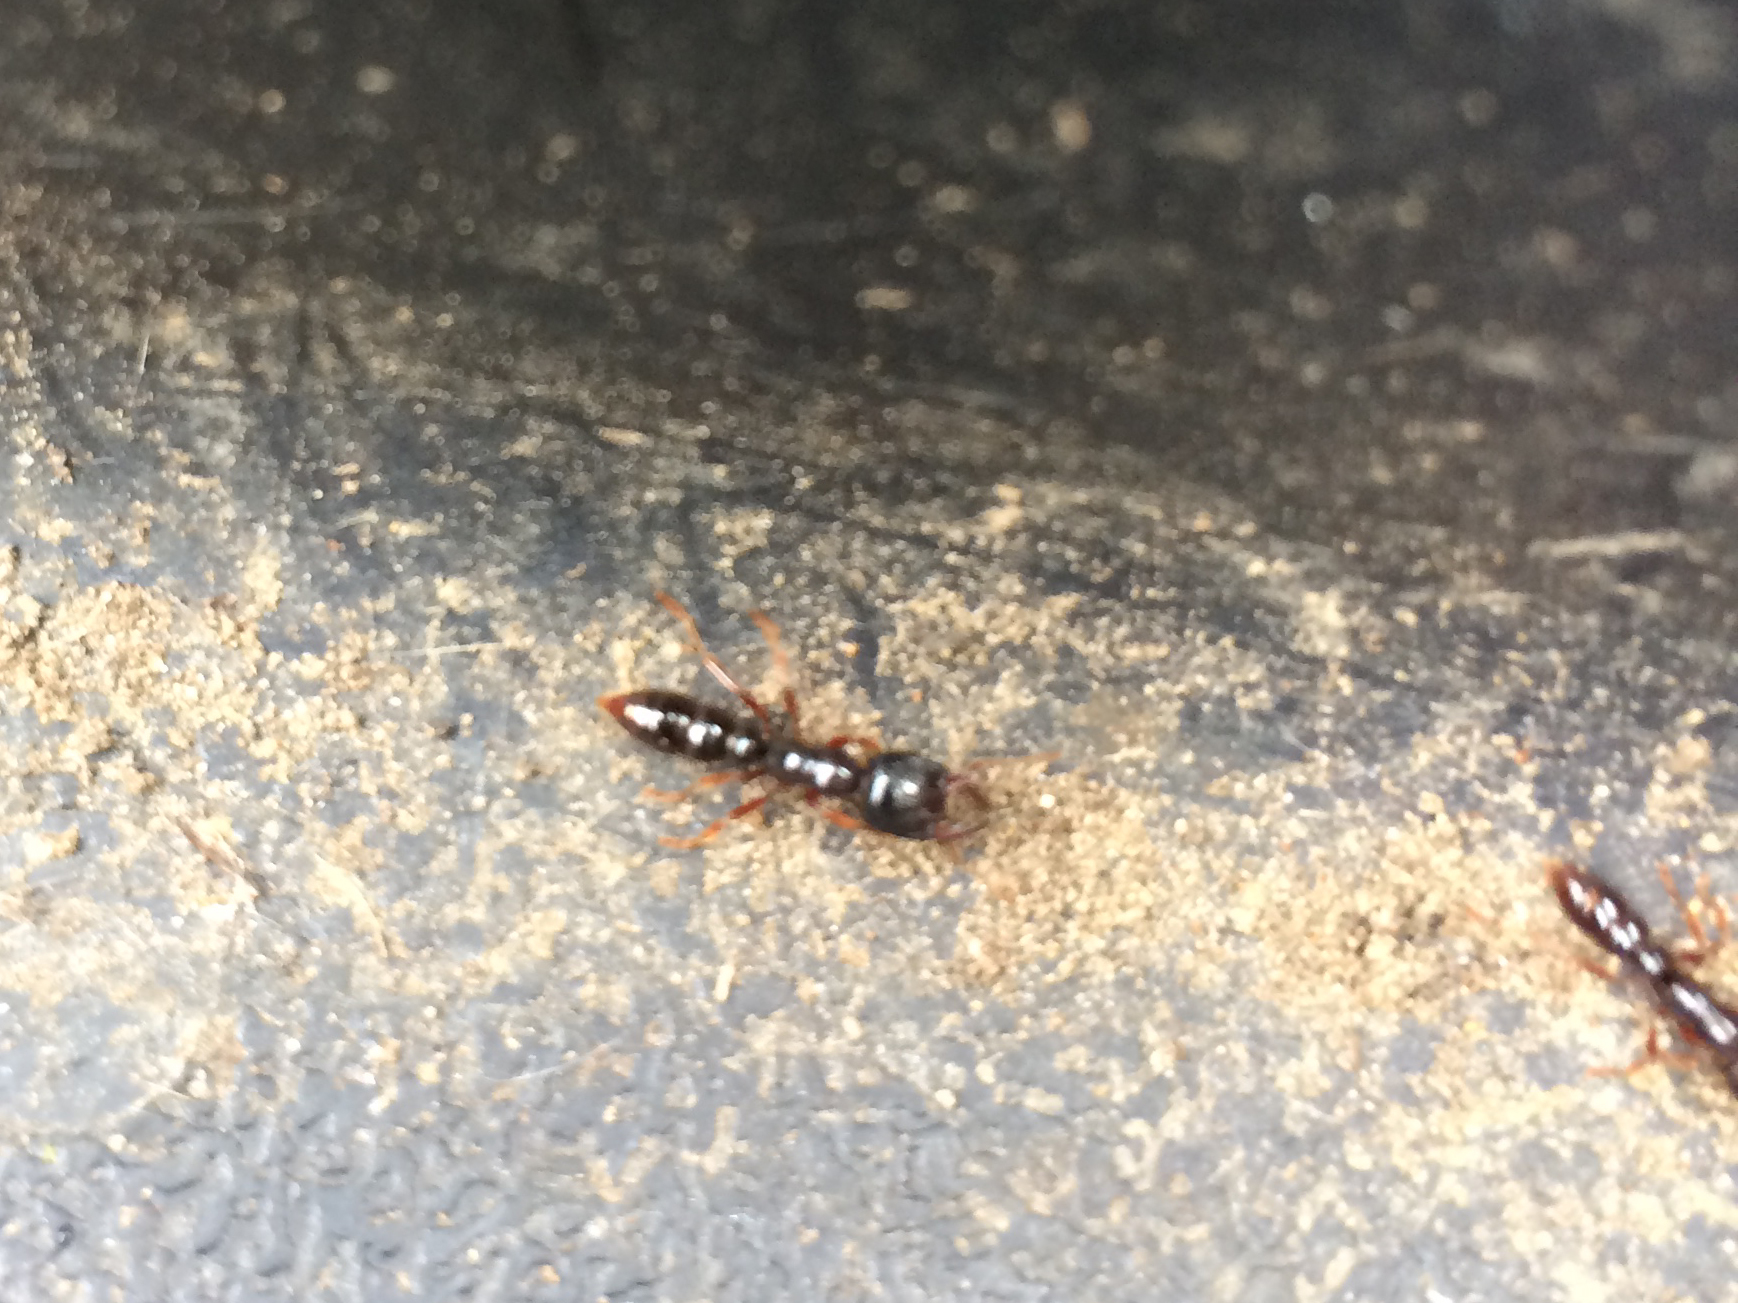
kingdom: Animalia
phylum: Arthropoda
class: Insecta
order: Hymenoptera
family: Formicidae
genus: Amblyopone
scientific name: Amblyopone australis
